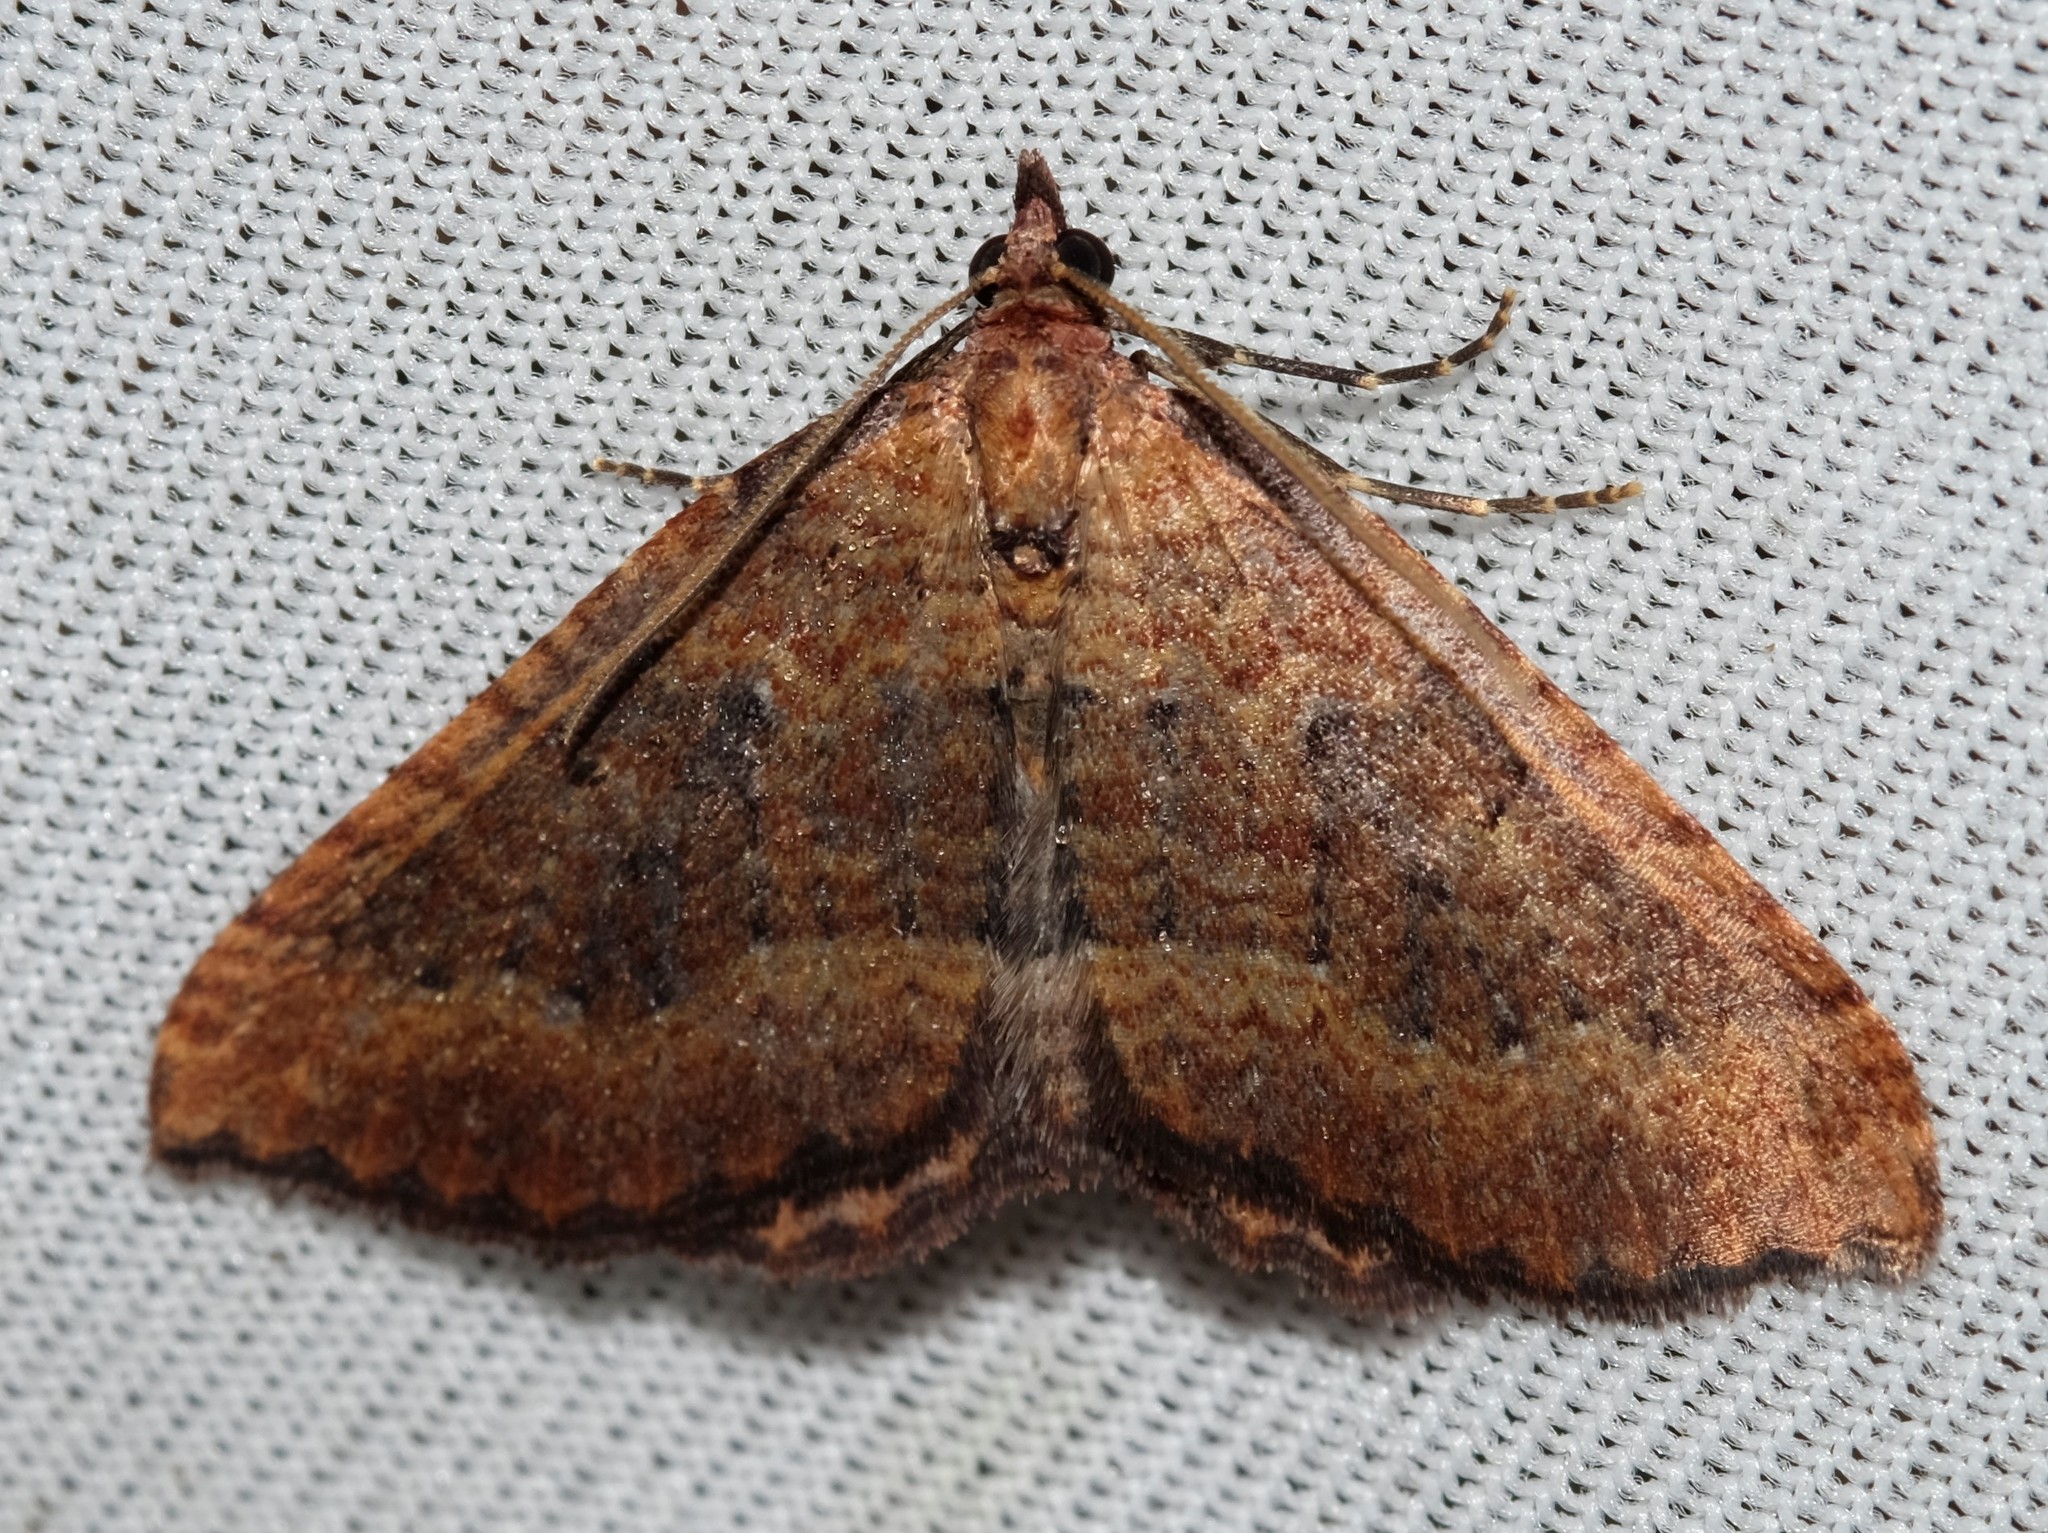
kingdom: Animalia
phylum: Arthropoda
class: Insecta
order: Lepidoptera
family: Geometridae
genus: Chrysolarentia
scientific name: Chrysolarentia trygodes
